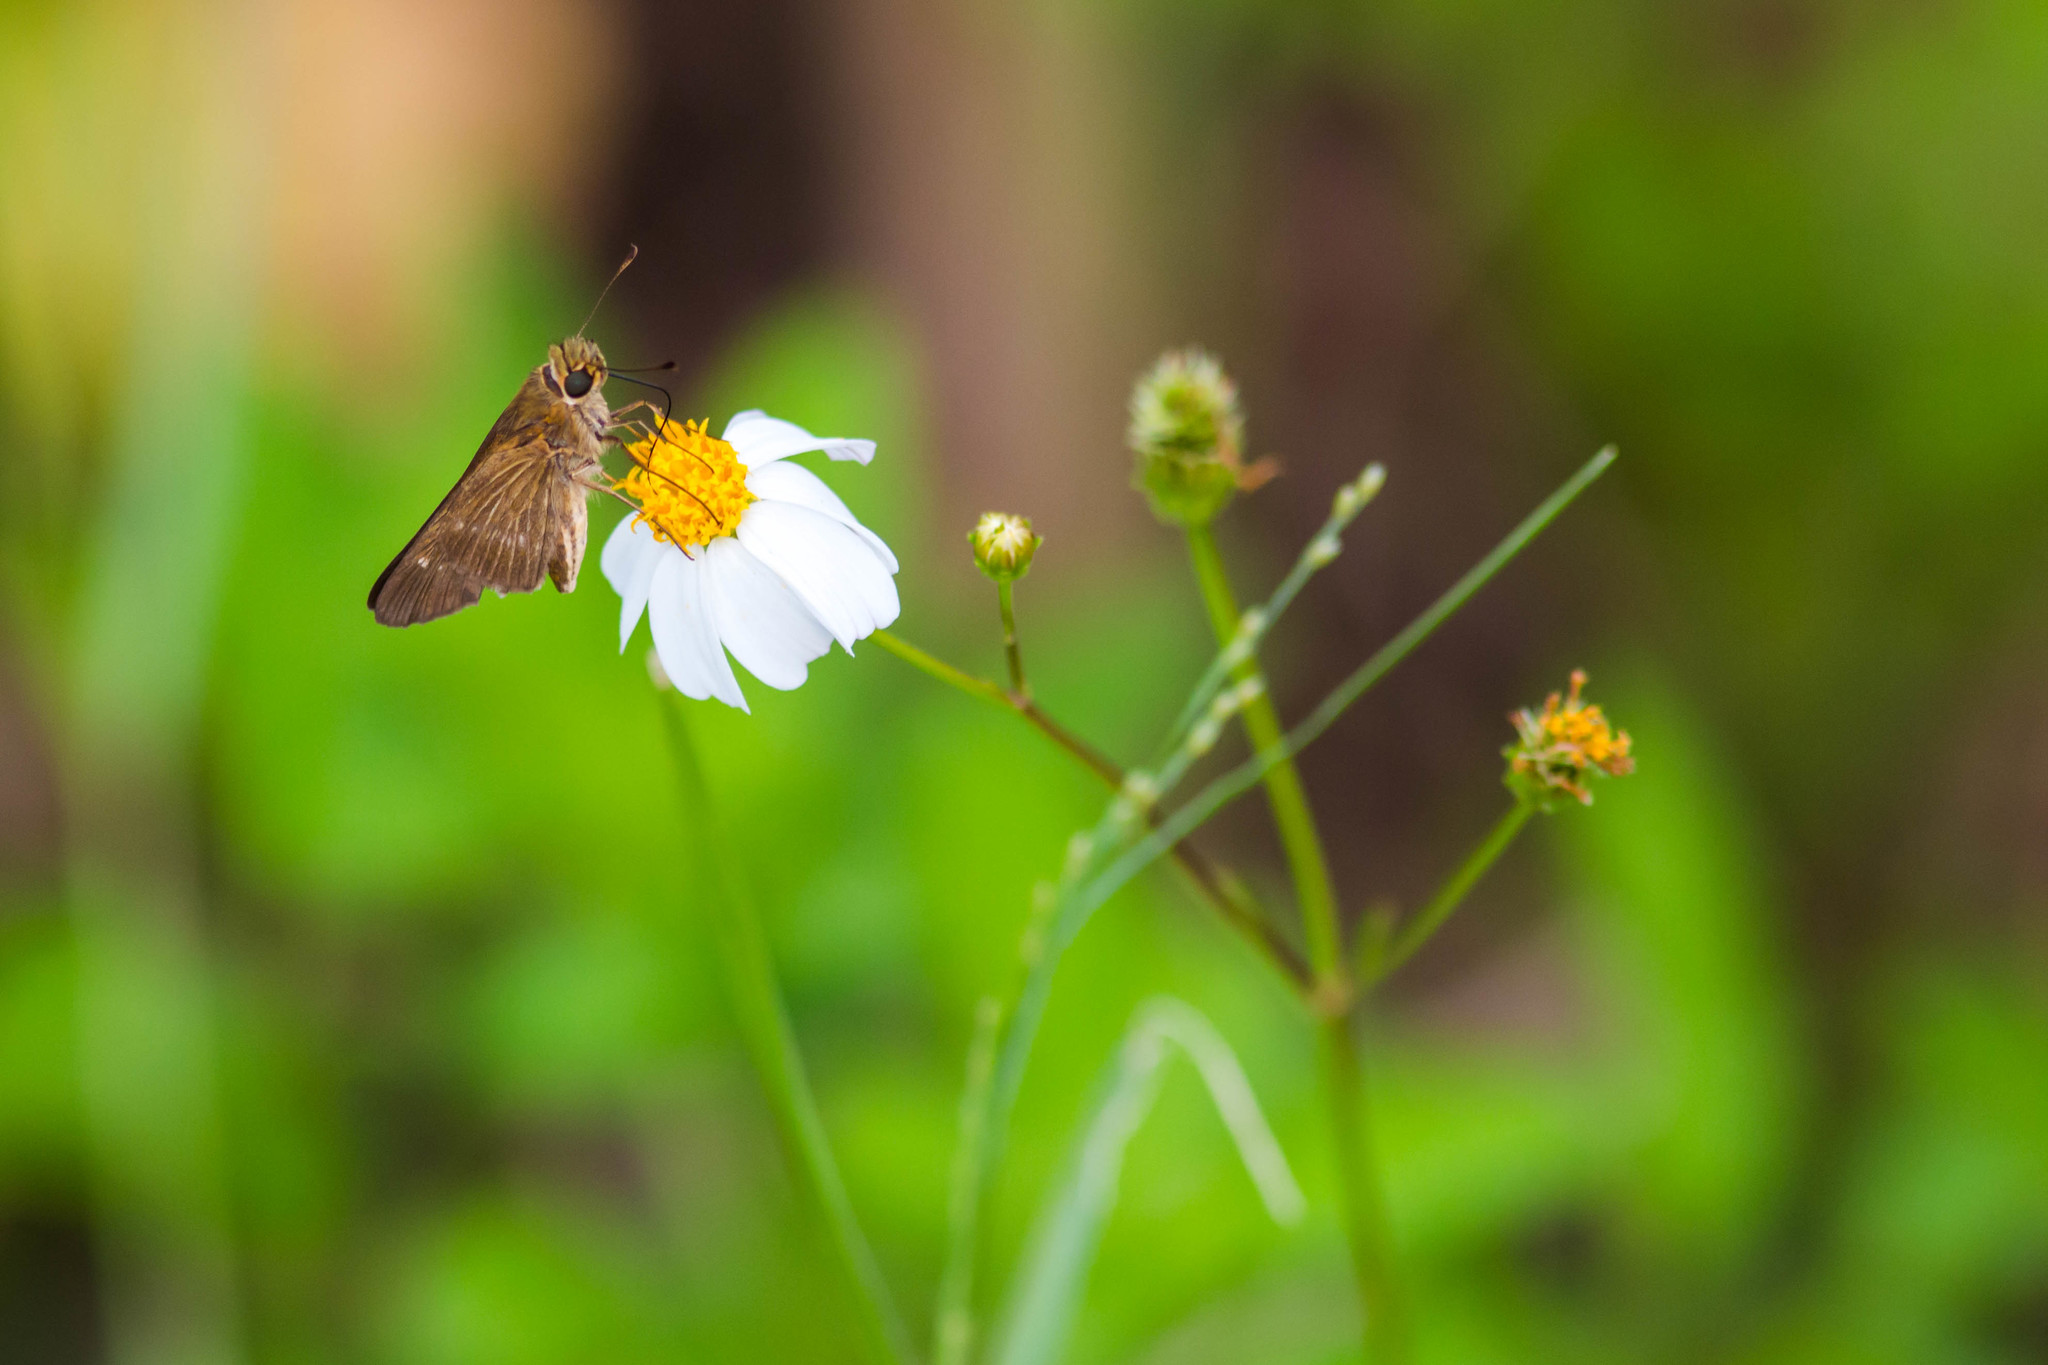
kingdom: Animalia
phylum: Arthropoda
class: Insecta
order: Lepidoptera
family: Hesperiidae
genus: Panoquina
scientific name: Panoquina ocola
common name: Ocola skipper
